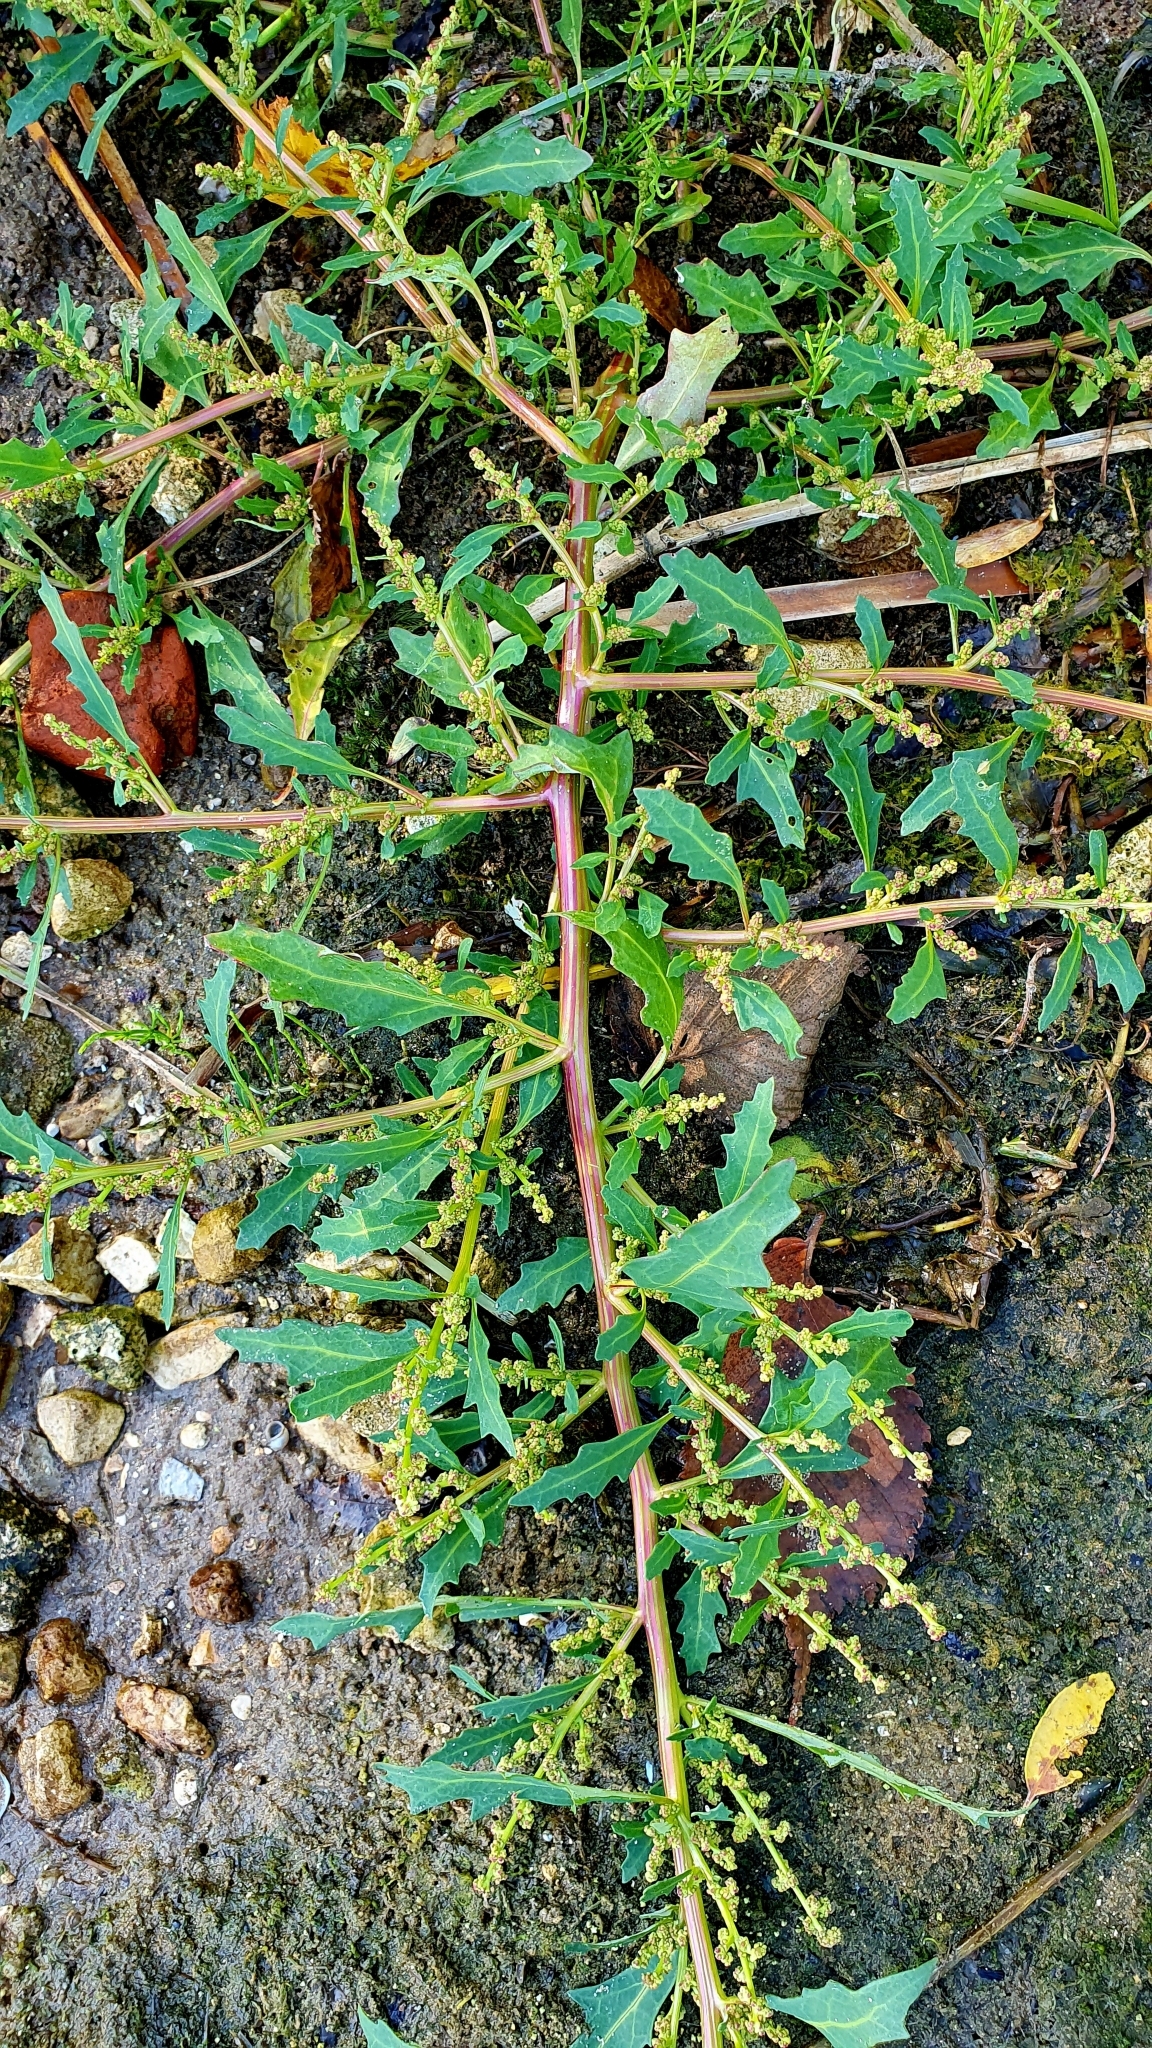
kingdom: Plantae
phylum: Tracheophyta
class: Magnoliopsida
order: Caryophyllales
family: Amaranthaceae
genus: Oxybasis
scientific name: Oxybasis glauca
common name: Glaucous goosefoot
